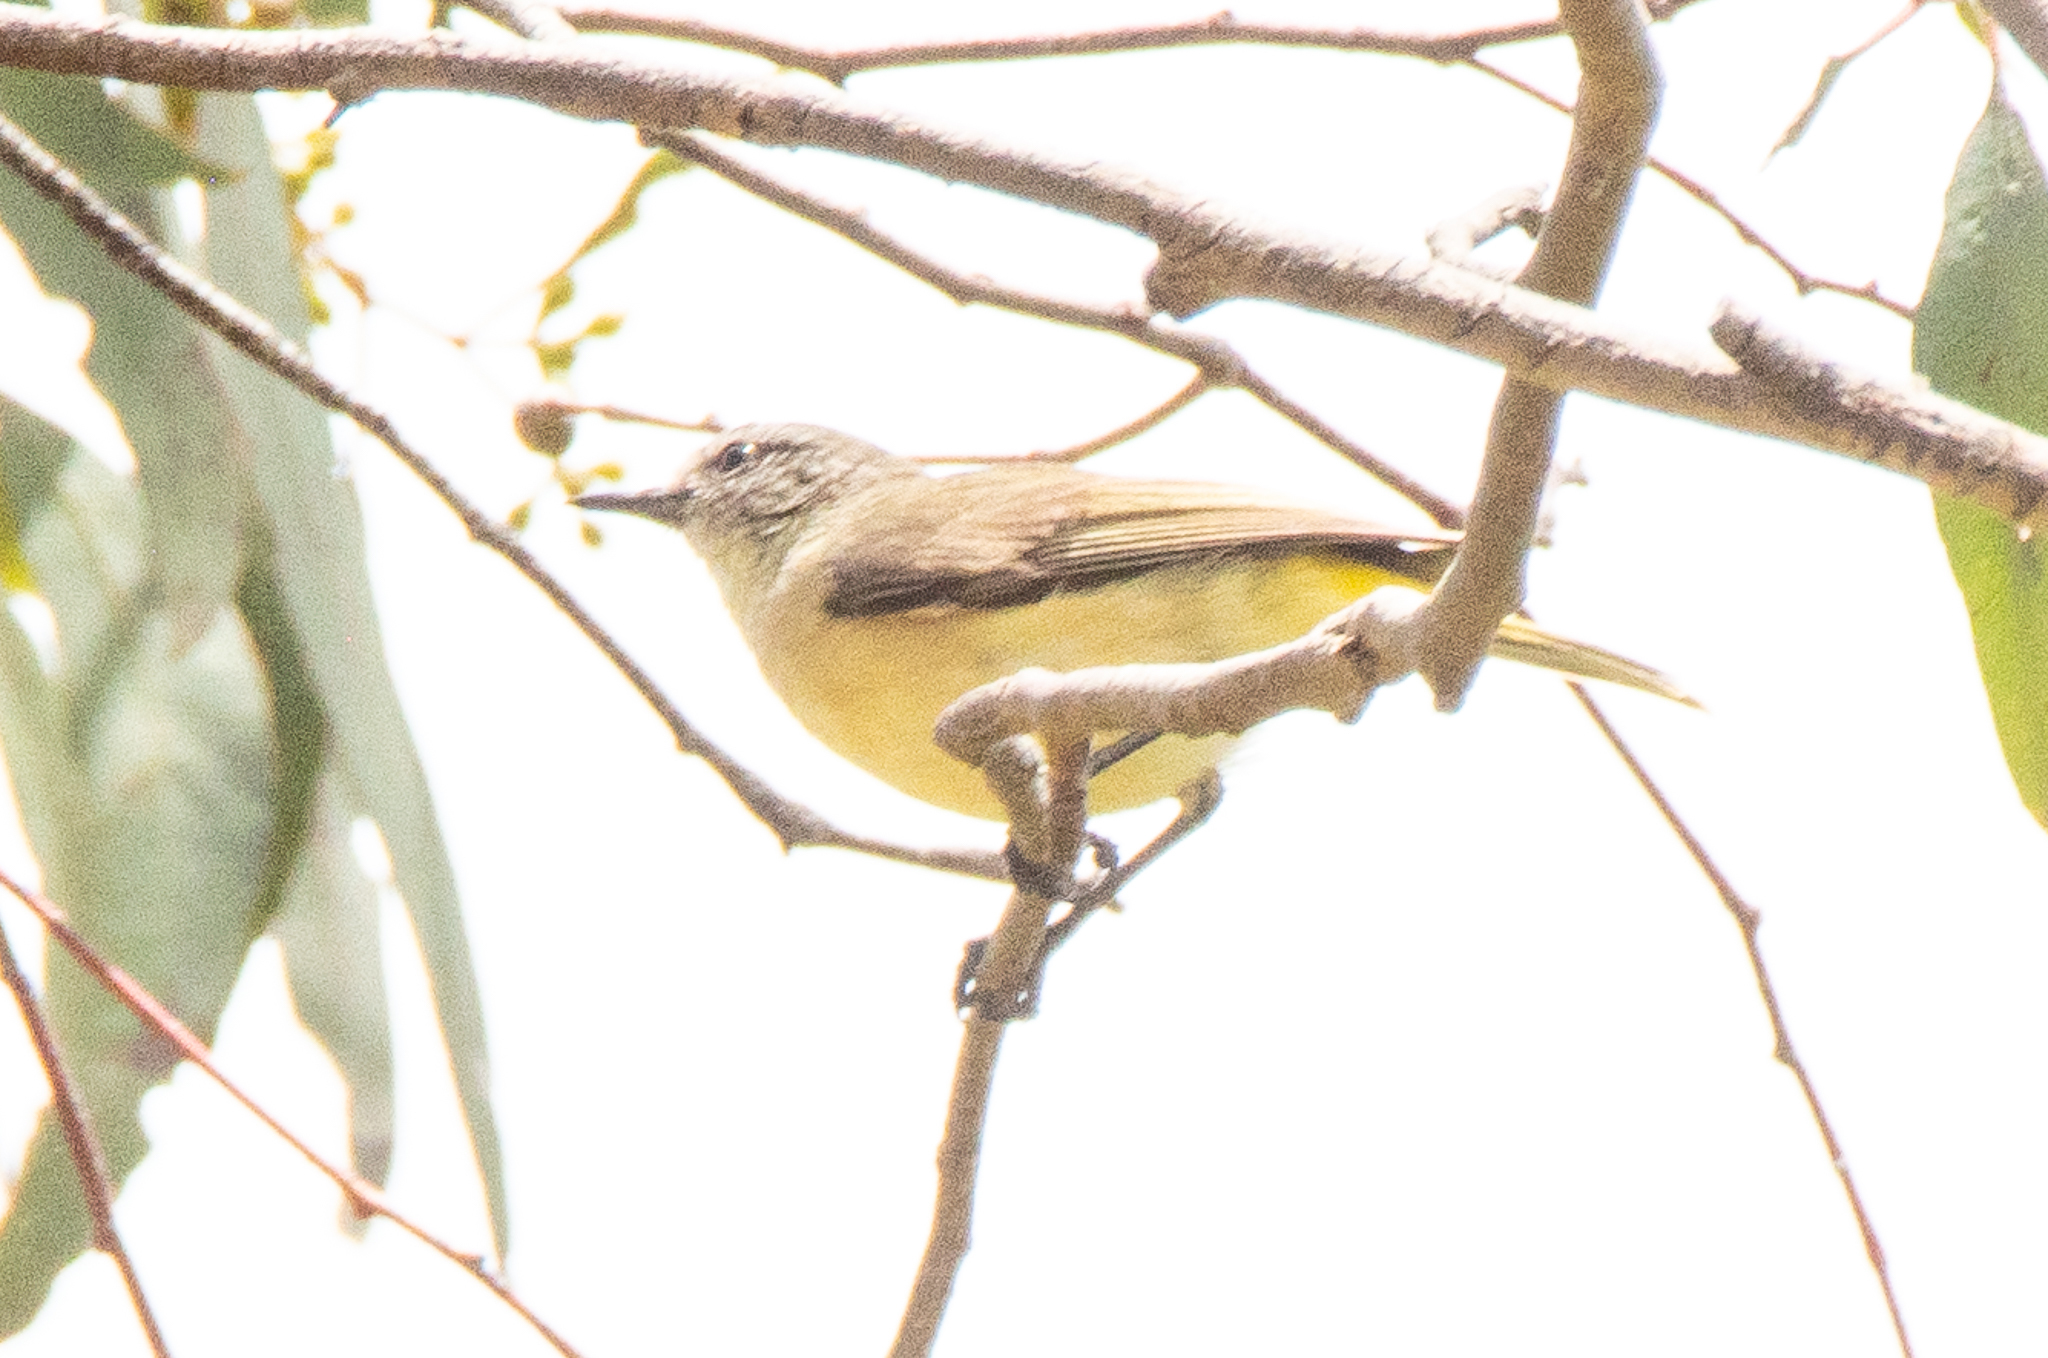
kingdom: Animalia
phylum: Chordata
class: Aves
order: Passeriformes
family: Acanthizidae
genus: Acanthiza
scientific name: Acanthiza chrysorrhoa
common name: Yellow-rumped thornbill
